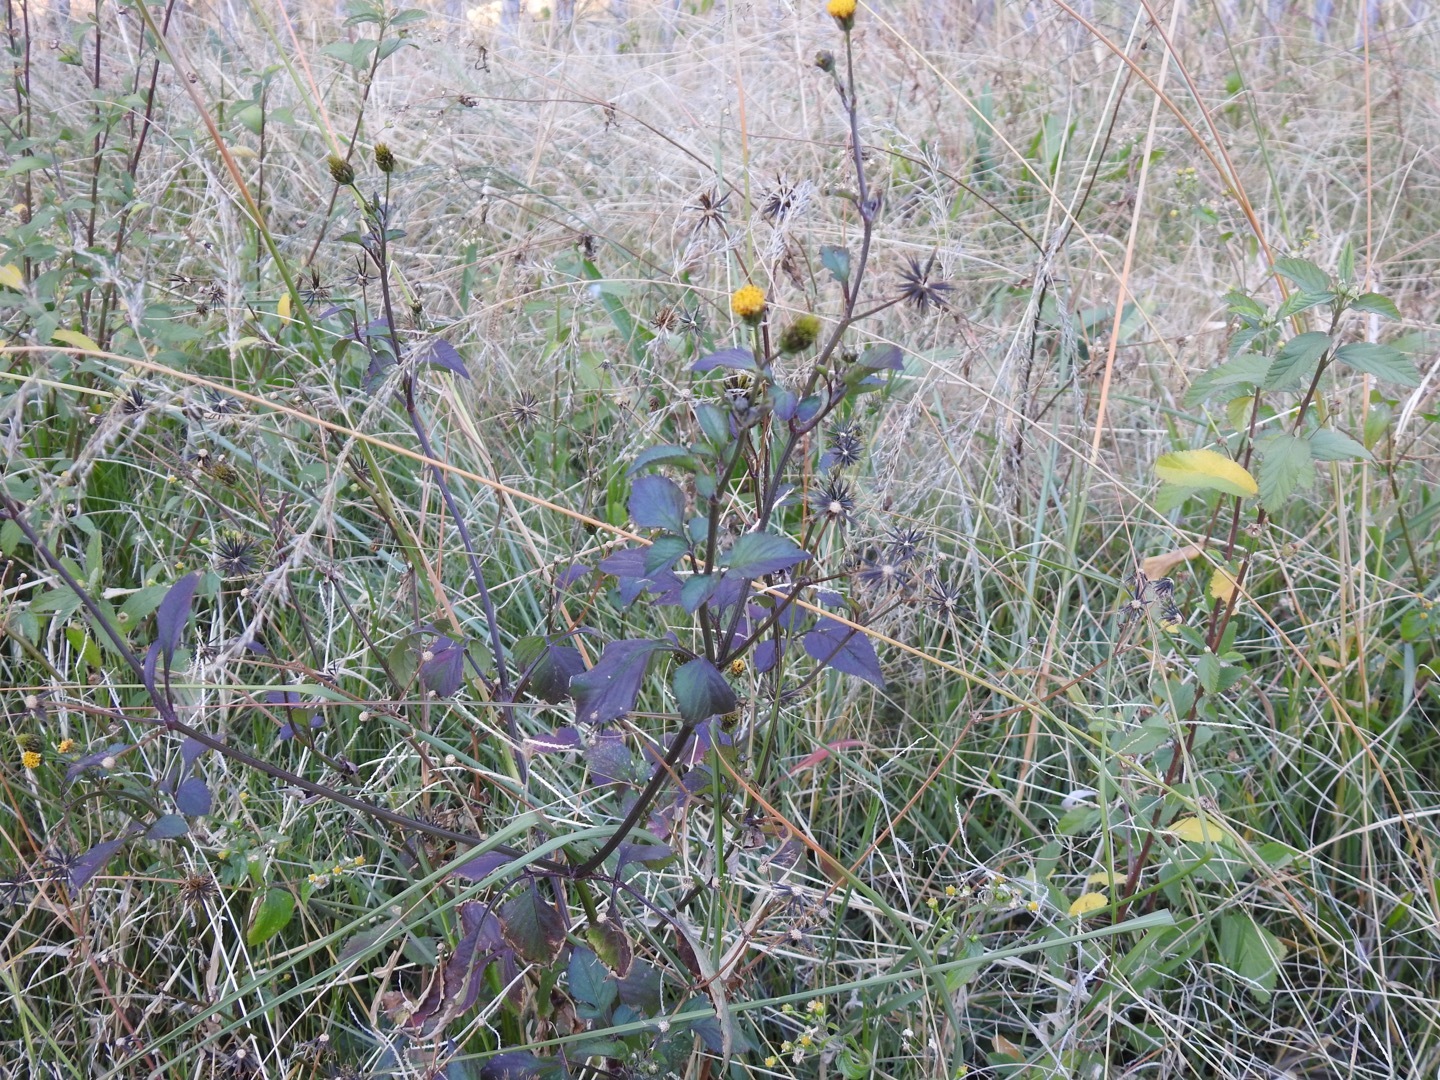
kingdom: Plantae
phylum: Tracheophyta
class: Magnoliopsida
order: Asterales
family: Asteraceae
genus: Bidens
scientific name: Bidens pilosa
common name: Black-jack
